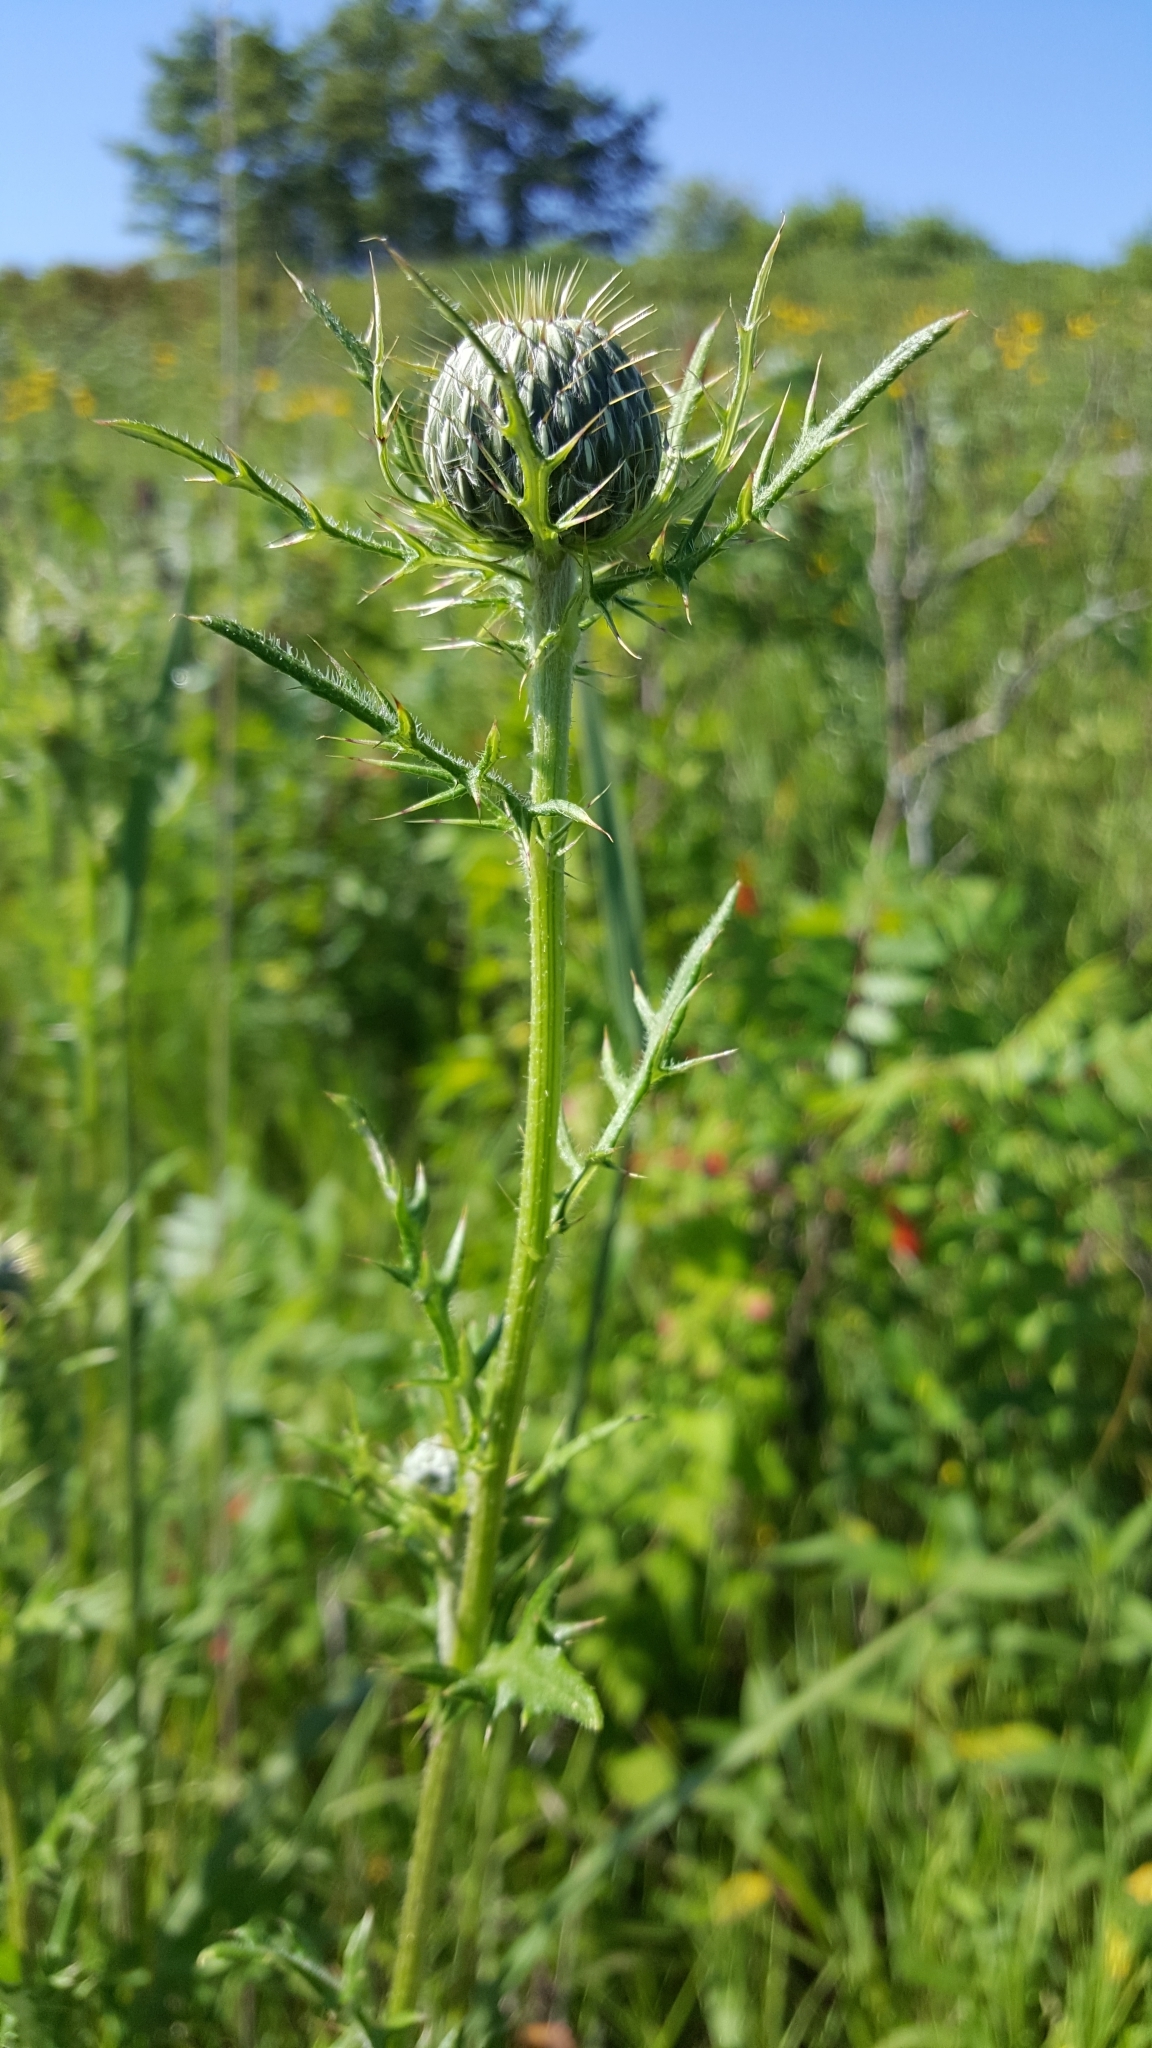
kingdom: Plantae
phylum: Tracheophyta
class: Magnoliopsida
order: Asterales
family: Asteraceae
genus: Cirsium
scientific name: Cirsium discolor
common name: Field thistle
